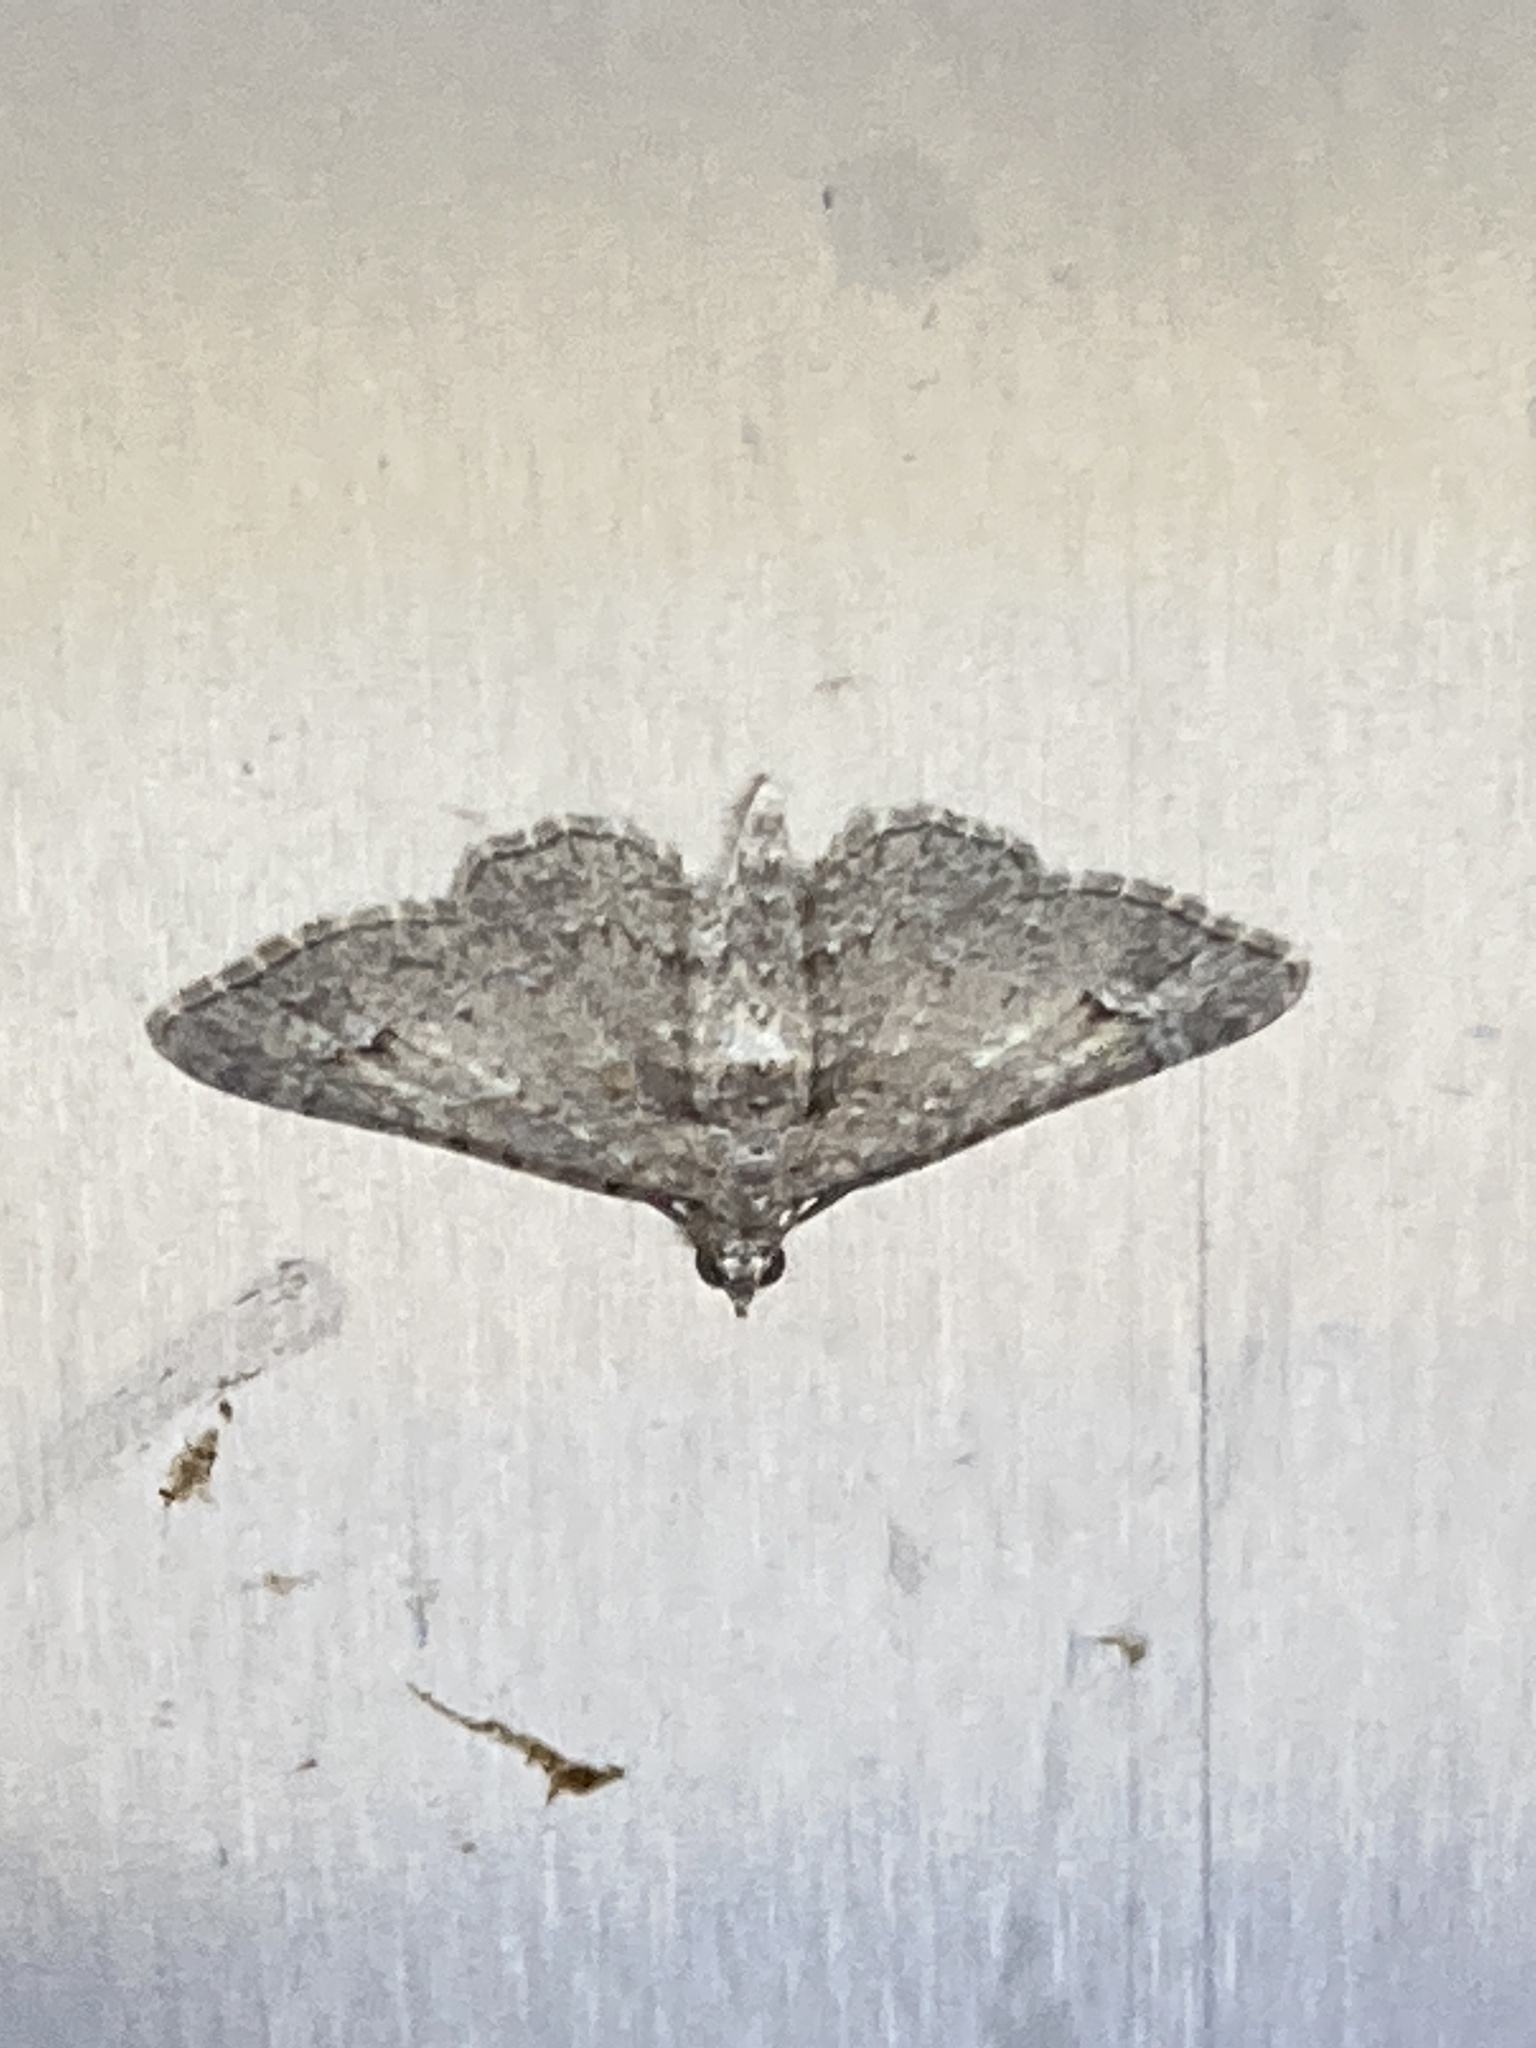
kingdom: Animalia
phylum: Arthropoda
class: Insecta
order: Lepidoptera
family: Geometridae
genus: Gymnoscelis
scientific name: Gymnoscelis rufifasciata
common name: Double-striped pug
